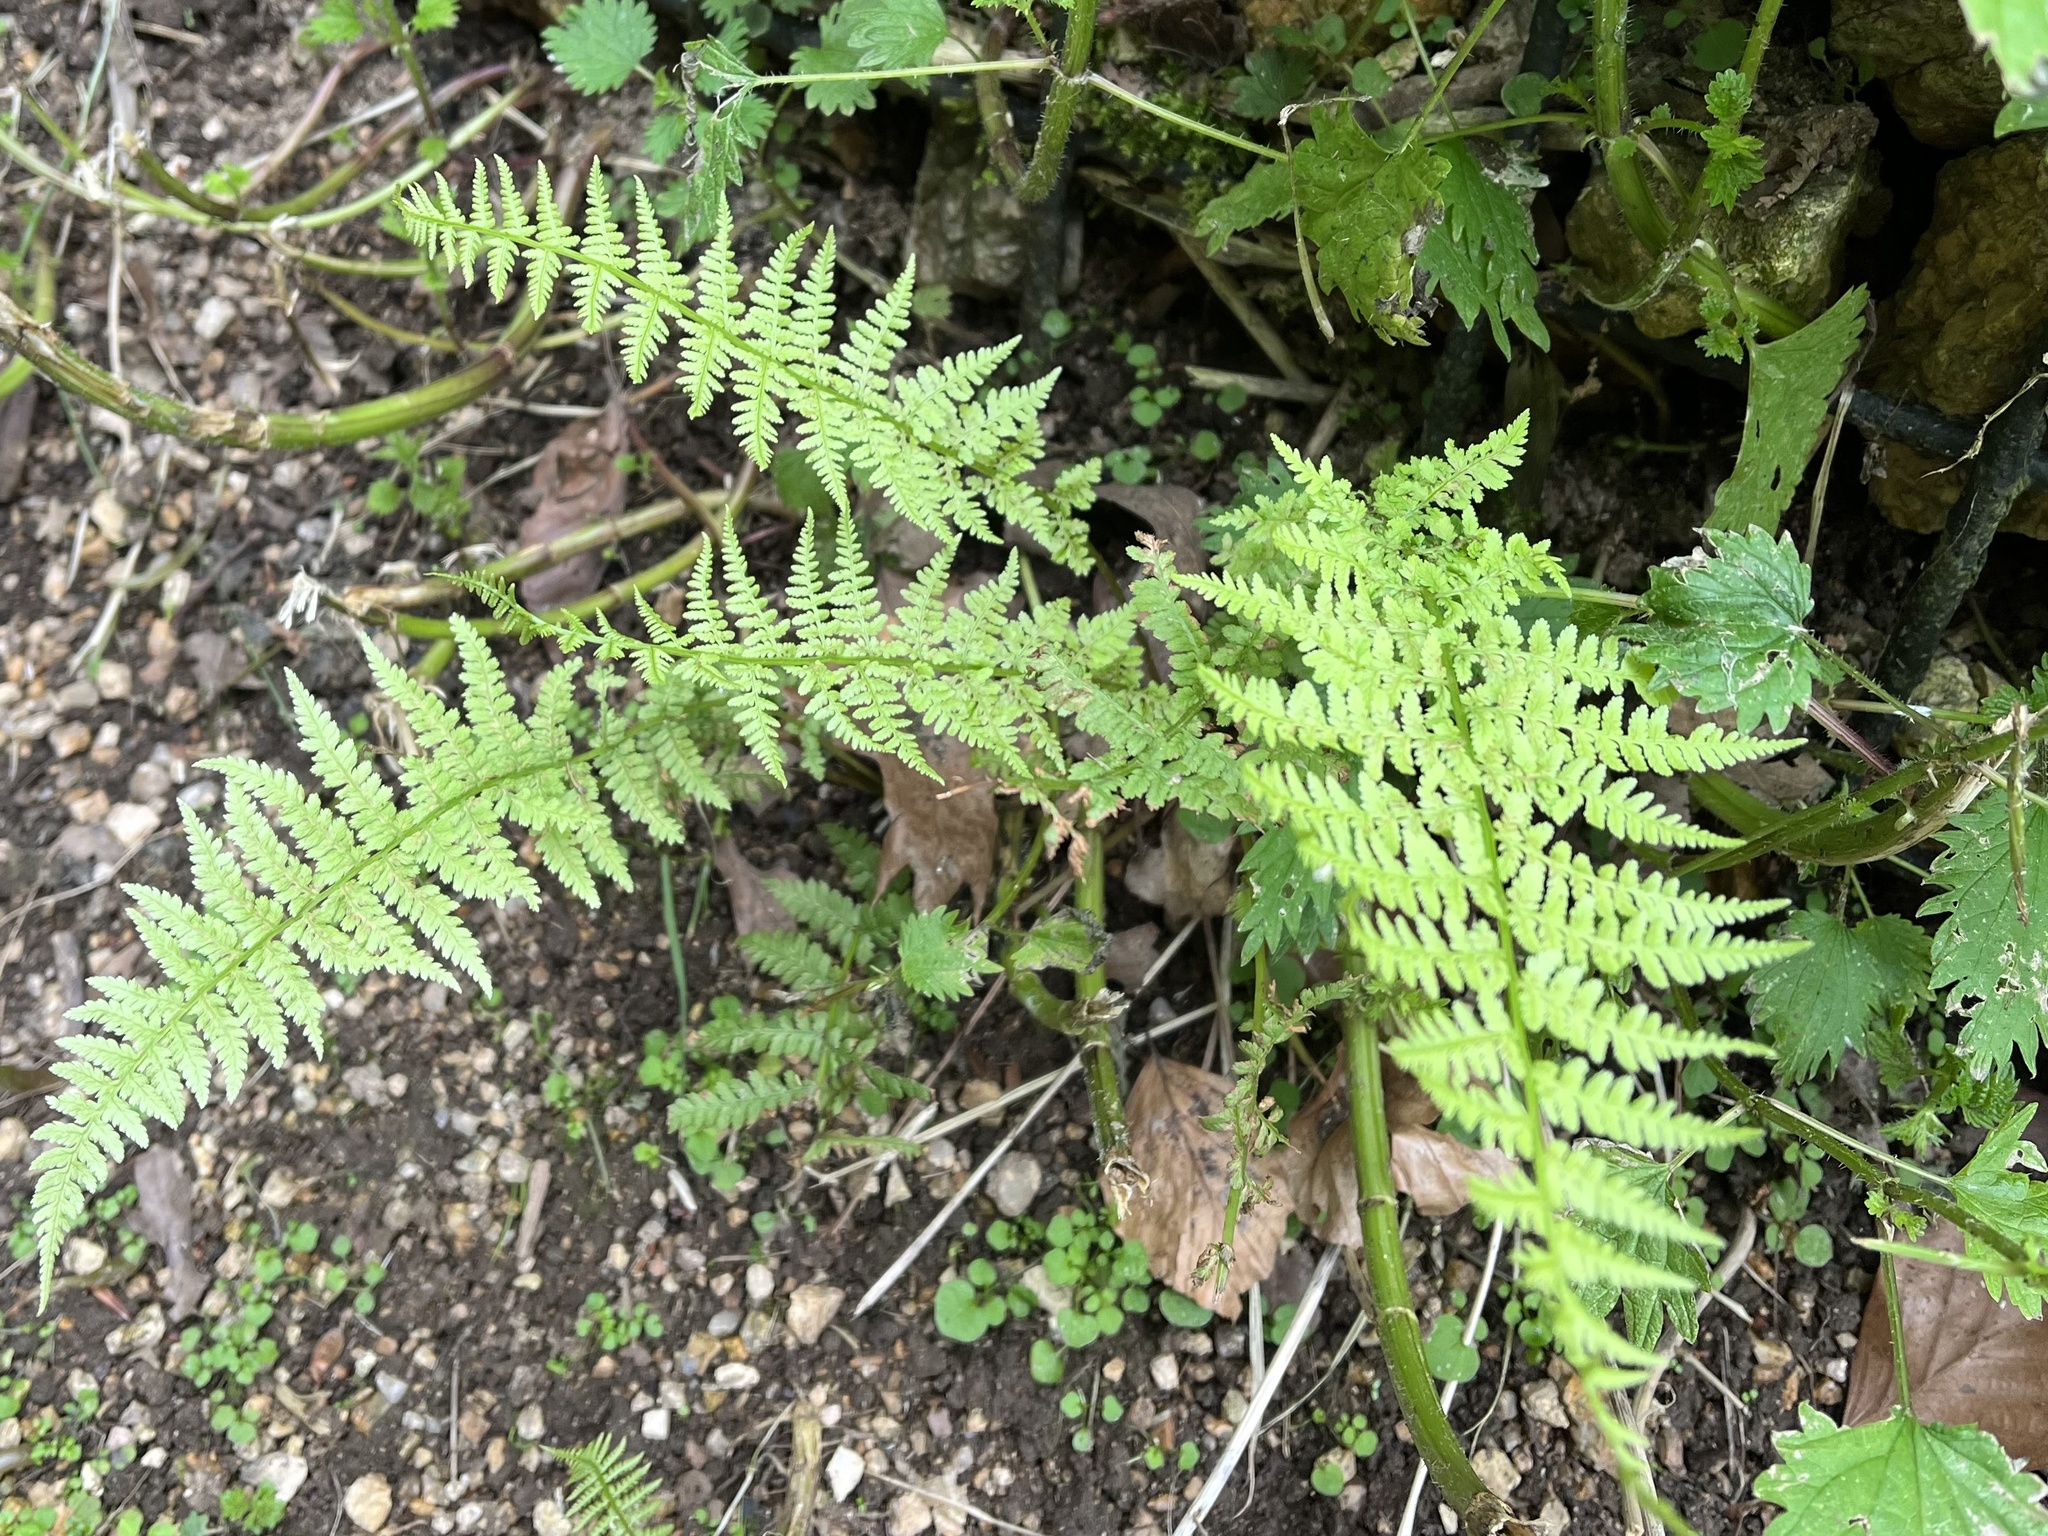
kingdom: Plantae
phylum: Tracheophyta
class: Polypodiopsida
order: Polypodiales
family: Athyriaceae
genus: Athyrium
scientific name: Athyrium filix-femina
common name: Lady fern
